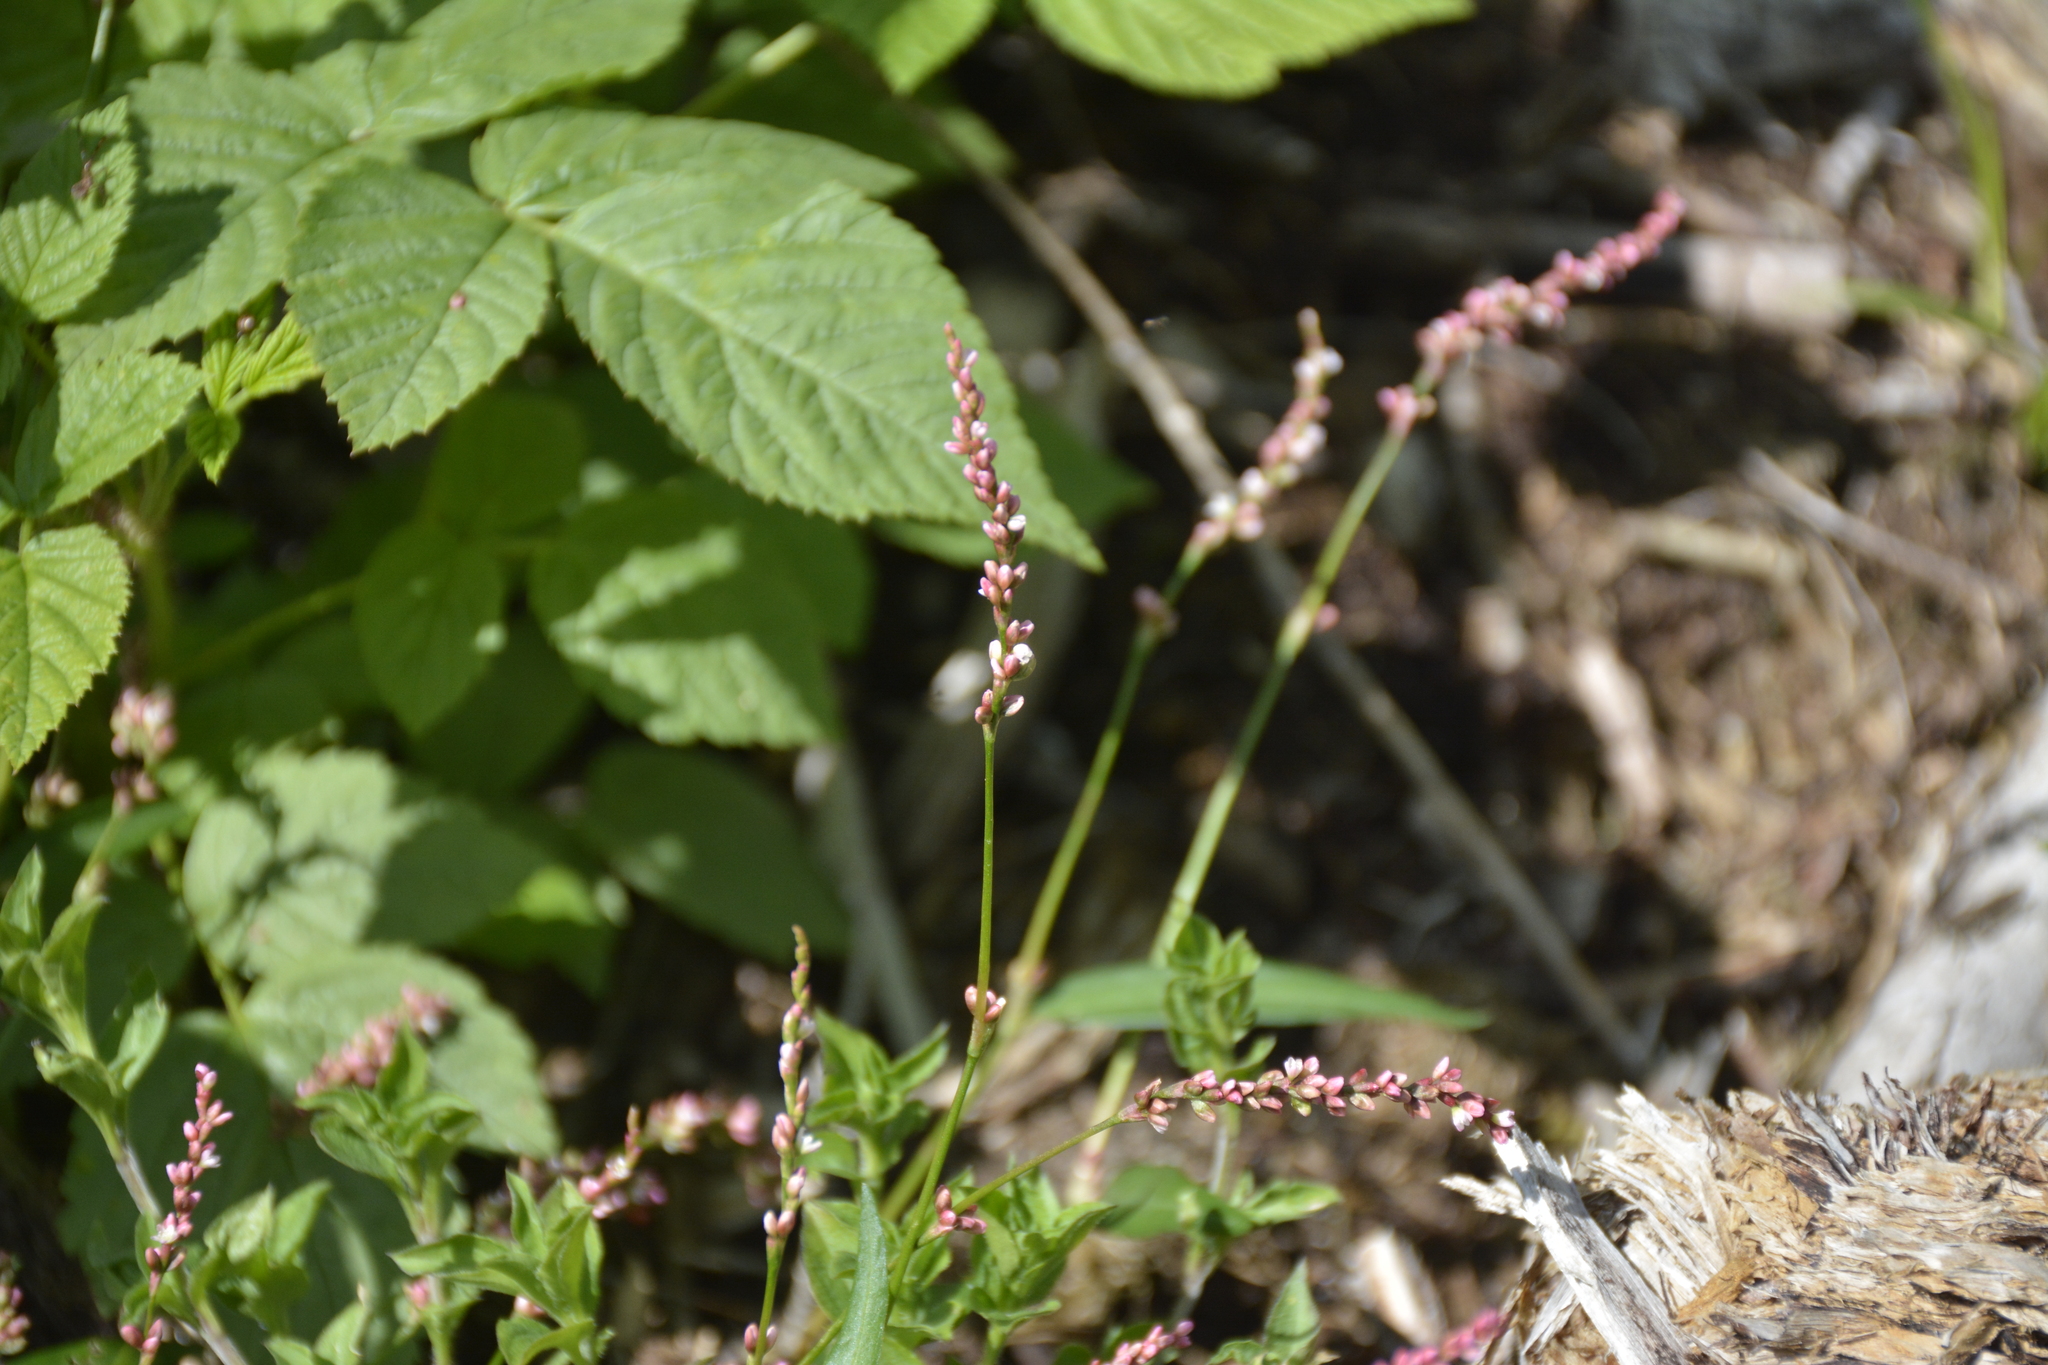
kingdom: Plantae
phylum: Tracheophyta
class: Magnoliopsida
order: Caryophyllales
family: Polygonaceae
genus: Persicaria
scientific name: Persicaria minor
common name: Small water-pepper
